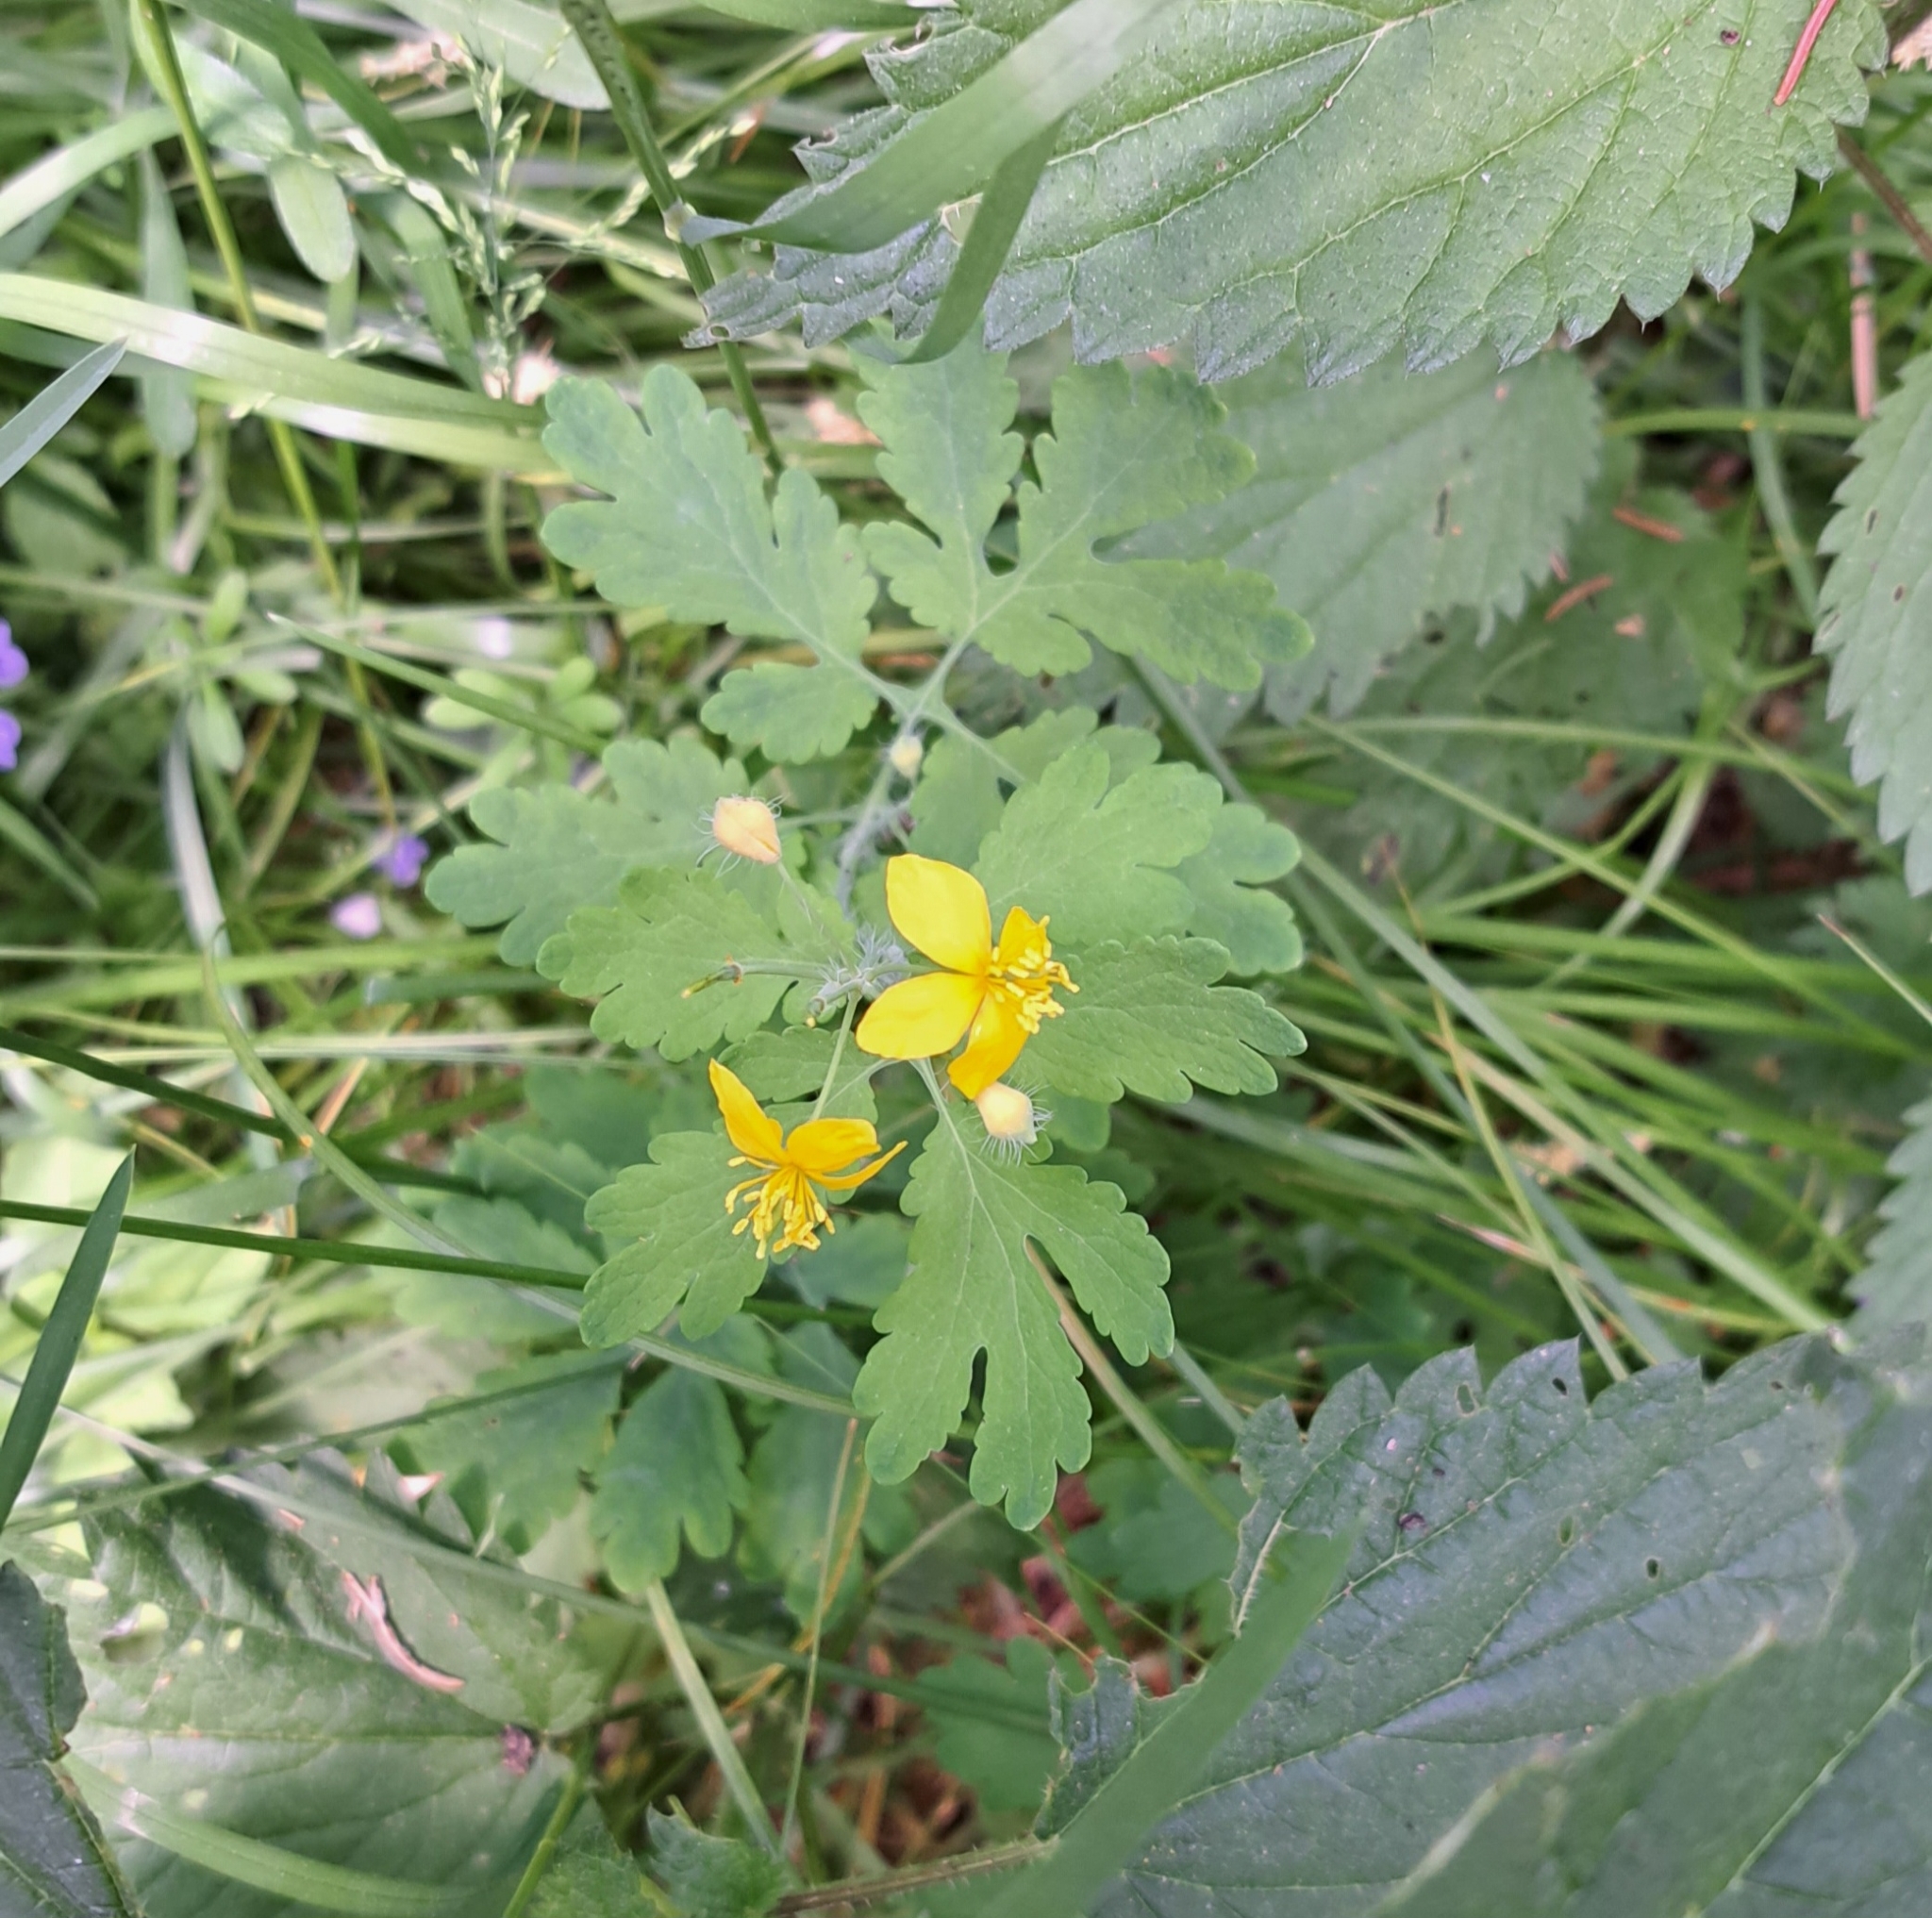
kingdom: Plantae
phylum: Tracheophyta
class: Magnoliopsida
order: Ranunculales
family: Papaveraceae
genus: Chelidonium
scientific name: Chelidonium majus
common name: Greater celandine
